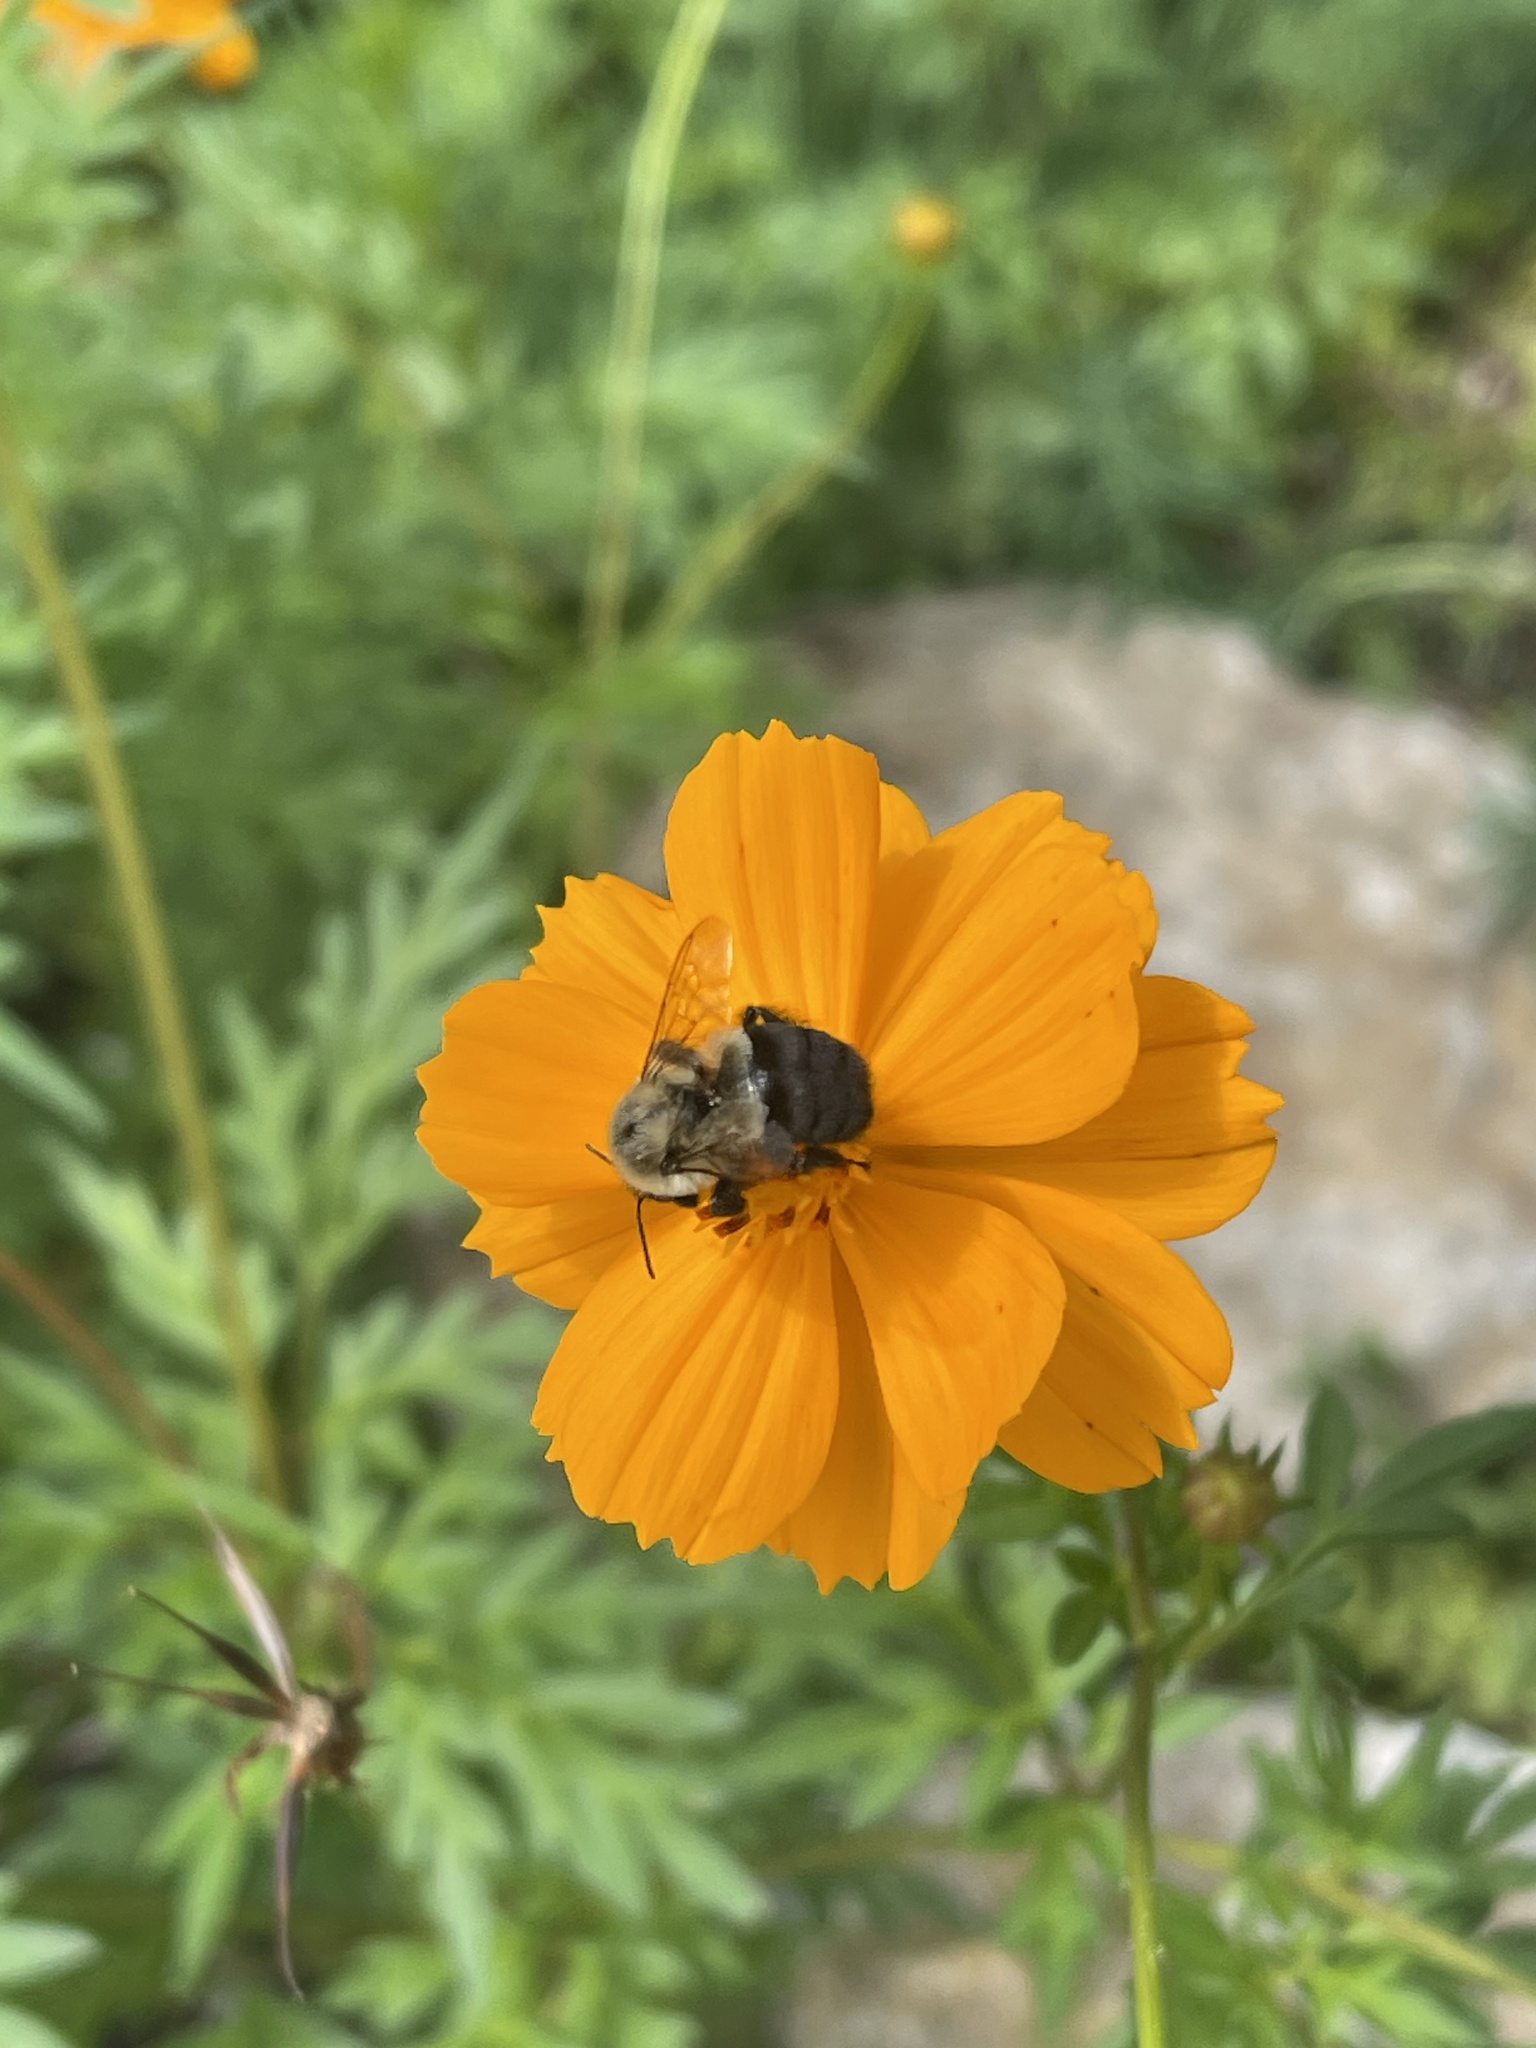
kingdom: Animalia
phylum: Arthropoda
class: Insecta
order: Hymenoptera
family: Apidae
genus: Bombus
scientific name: Bombus impatiens
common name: Common eastern bumble bee
